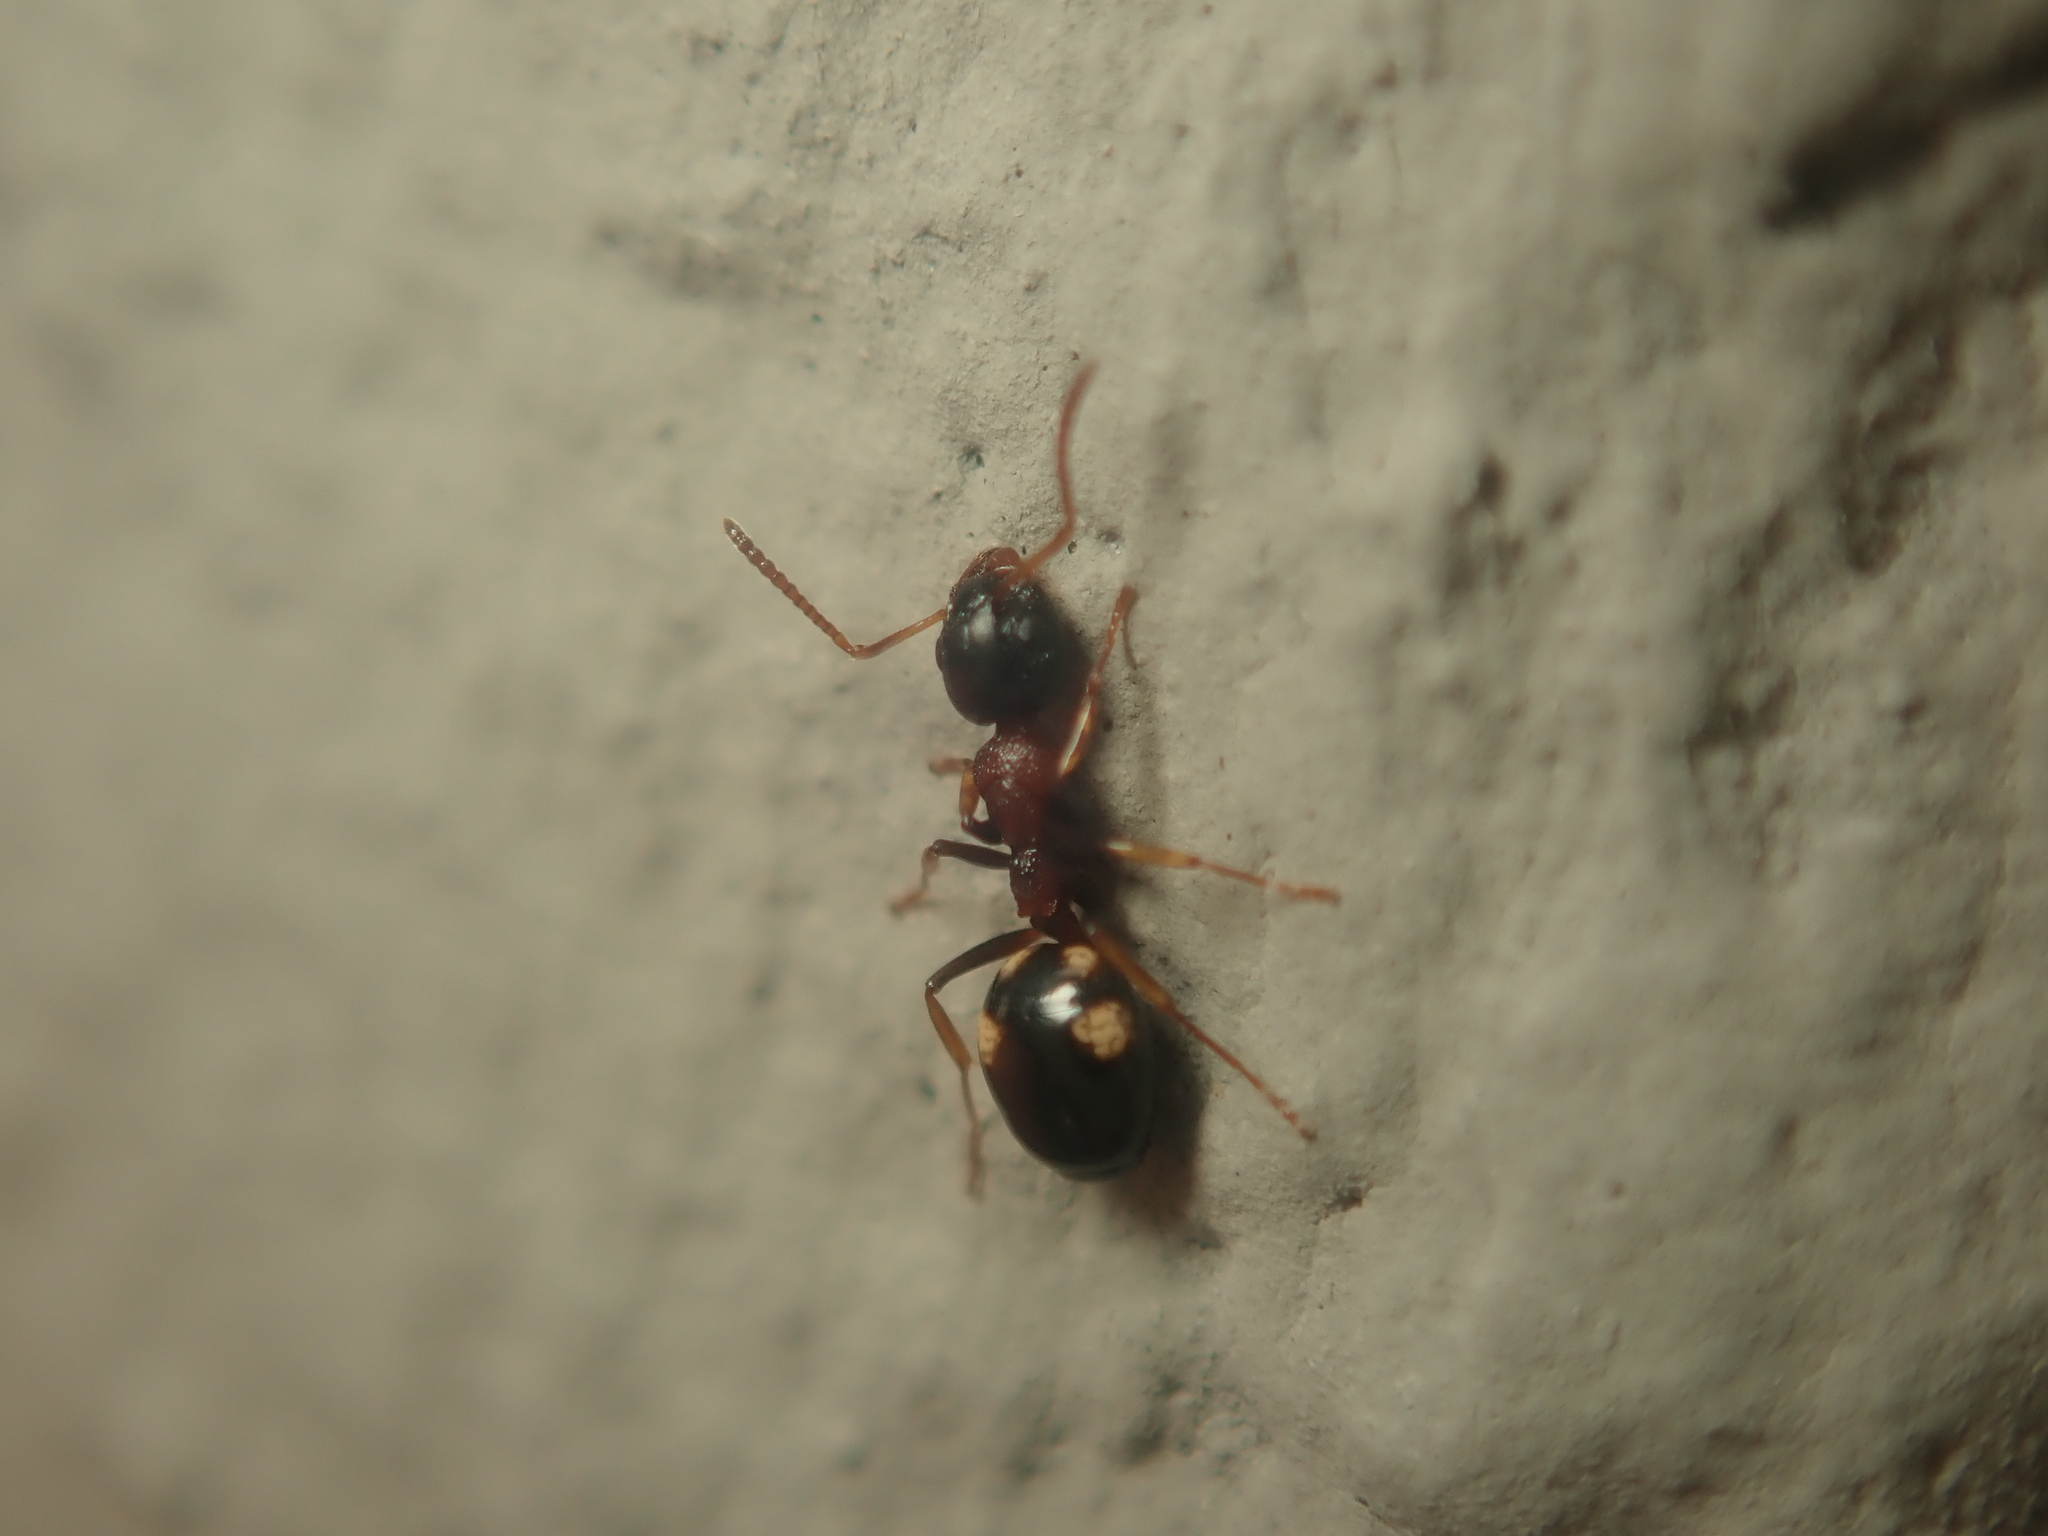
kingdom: Animalia
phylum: Arthropoda
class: Insecta
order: Hymenoptera
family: Formicidae
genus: Dolichoderus
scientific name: Dolichoderus quadripunctatus
